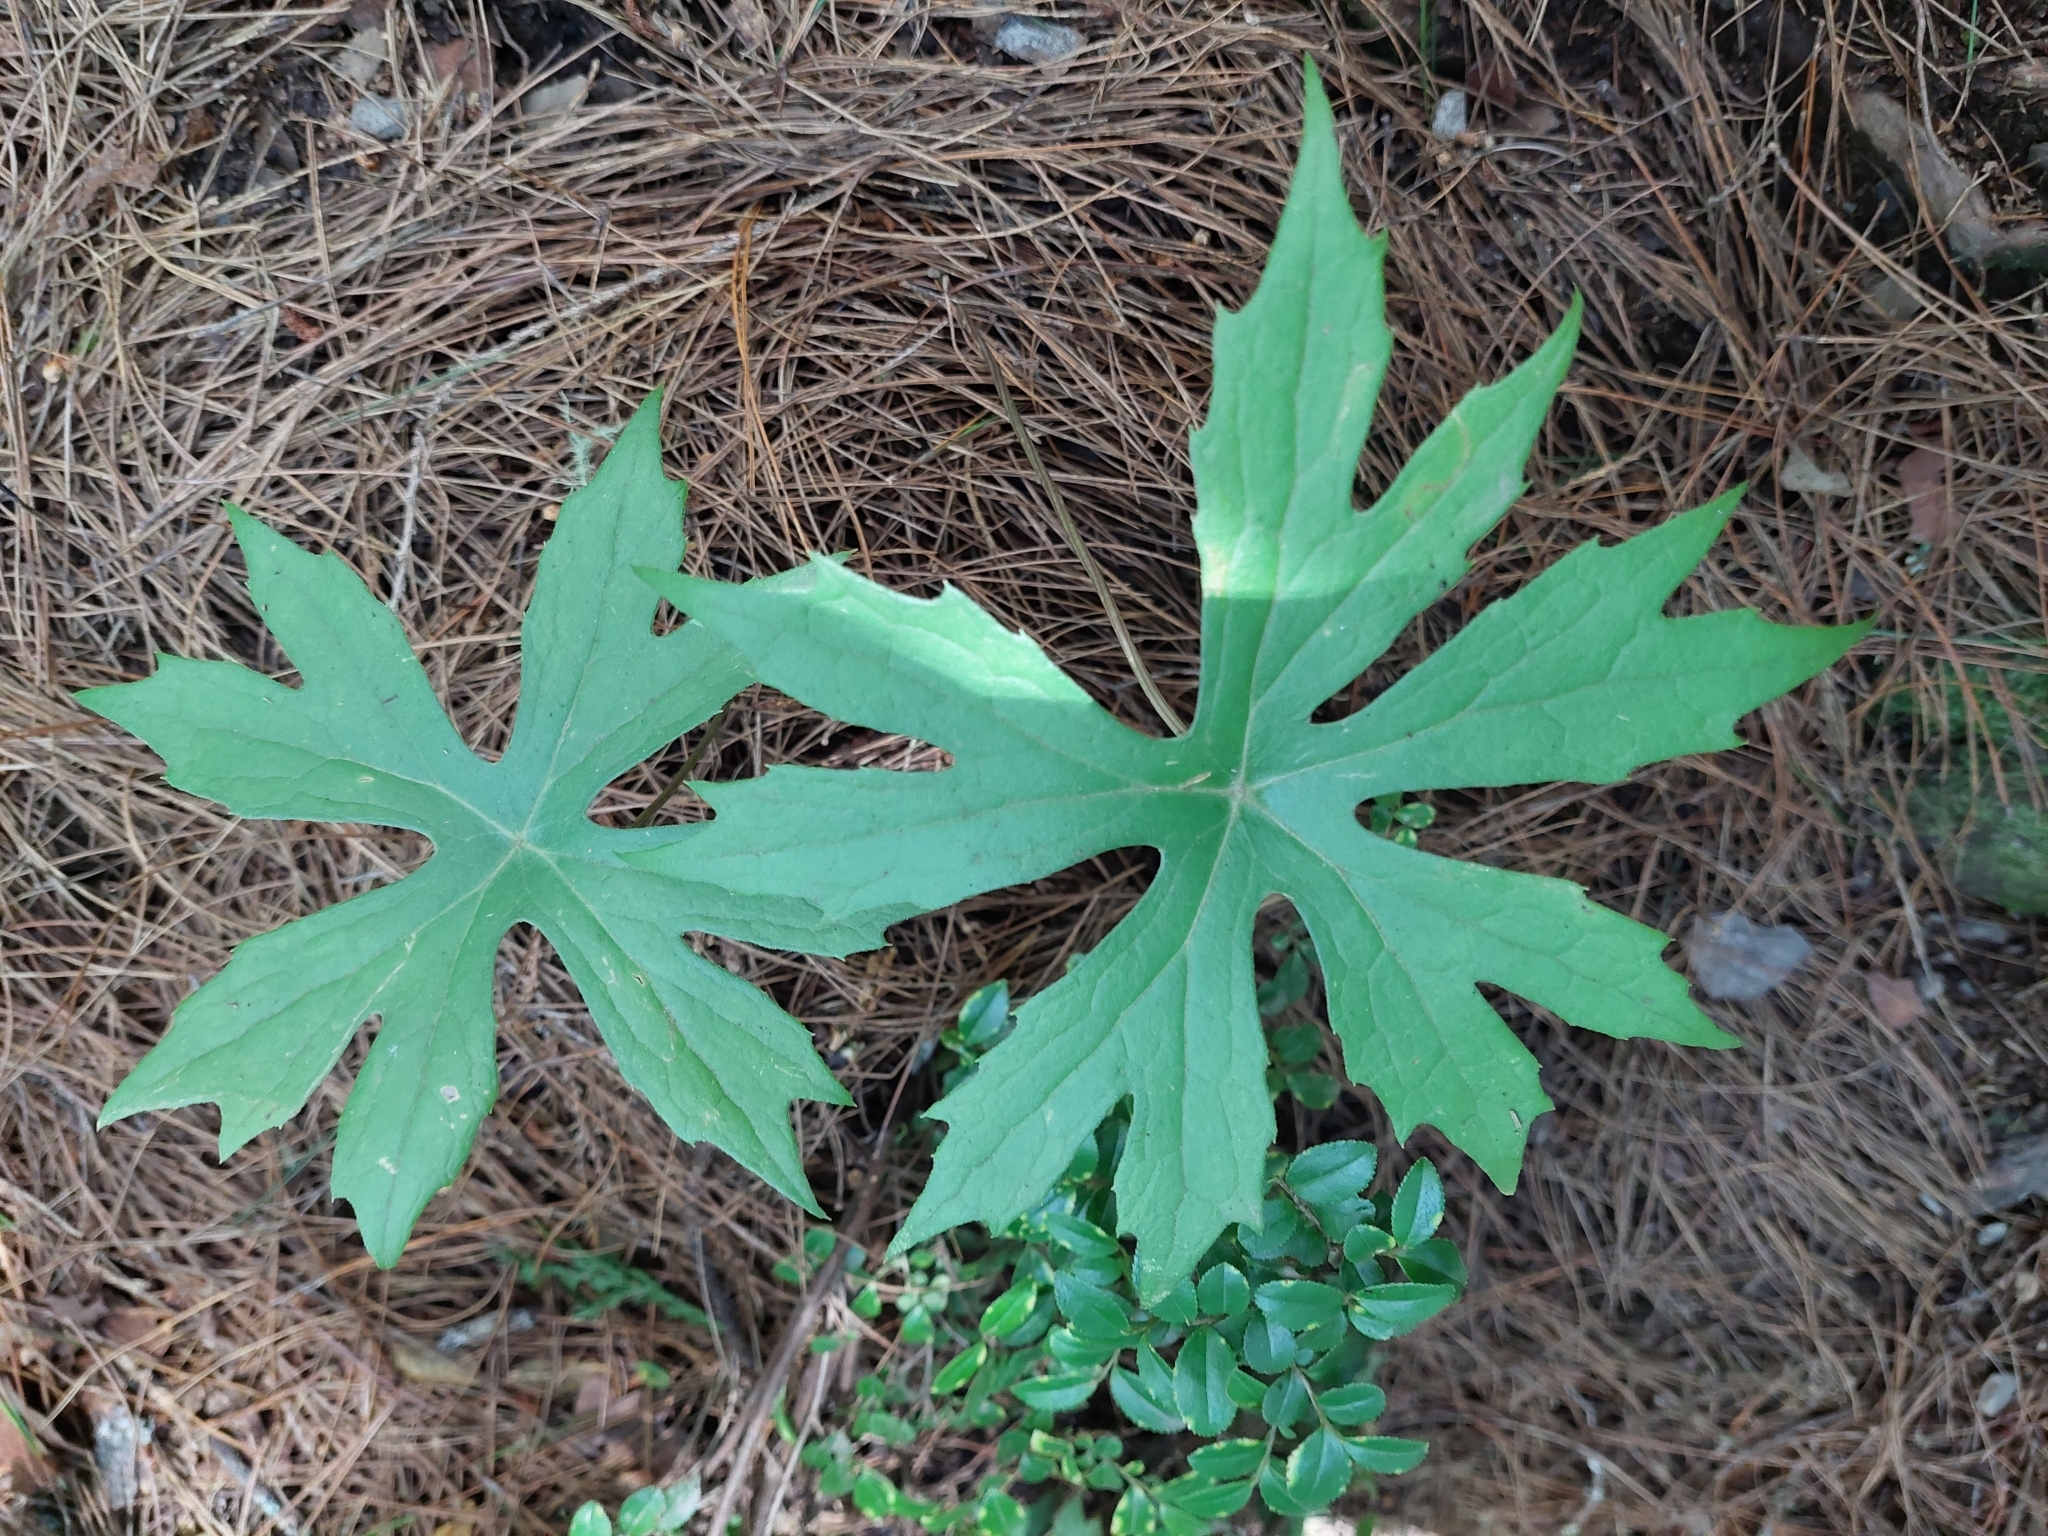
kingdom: Plantae
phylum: Tracheophyta
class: Magnoliopsida
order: Asterales
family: Asteraceae
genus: Syneilesis
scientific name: Syneilesis subglabrata
